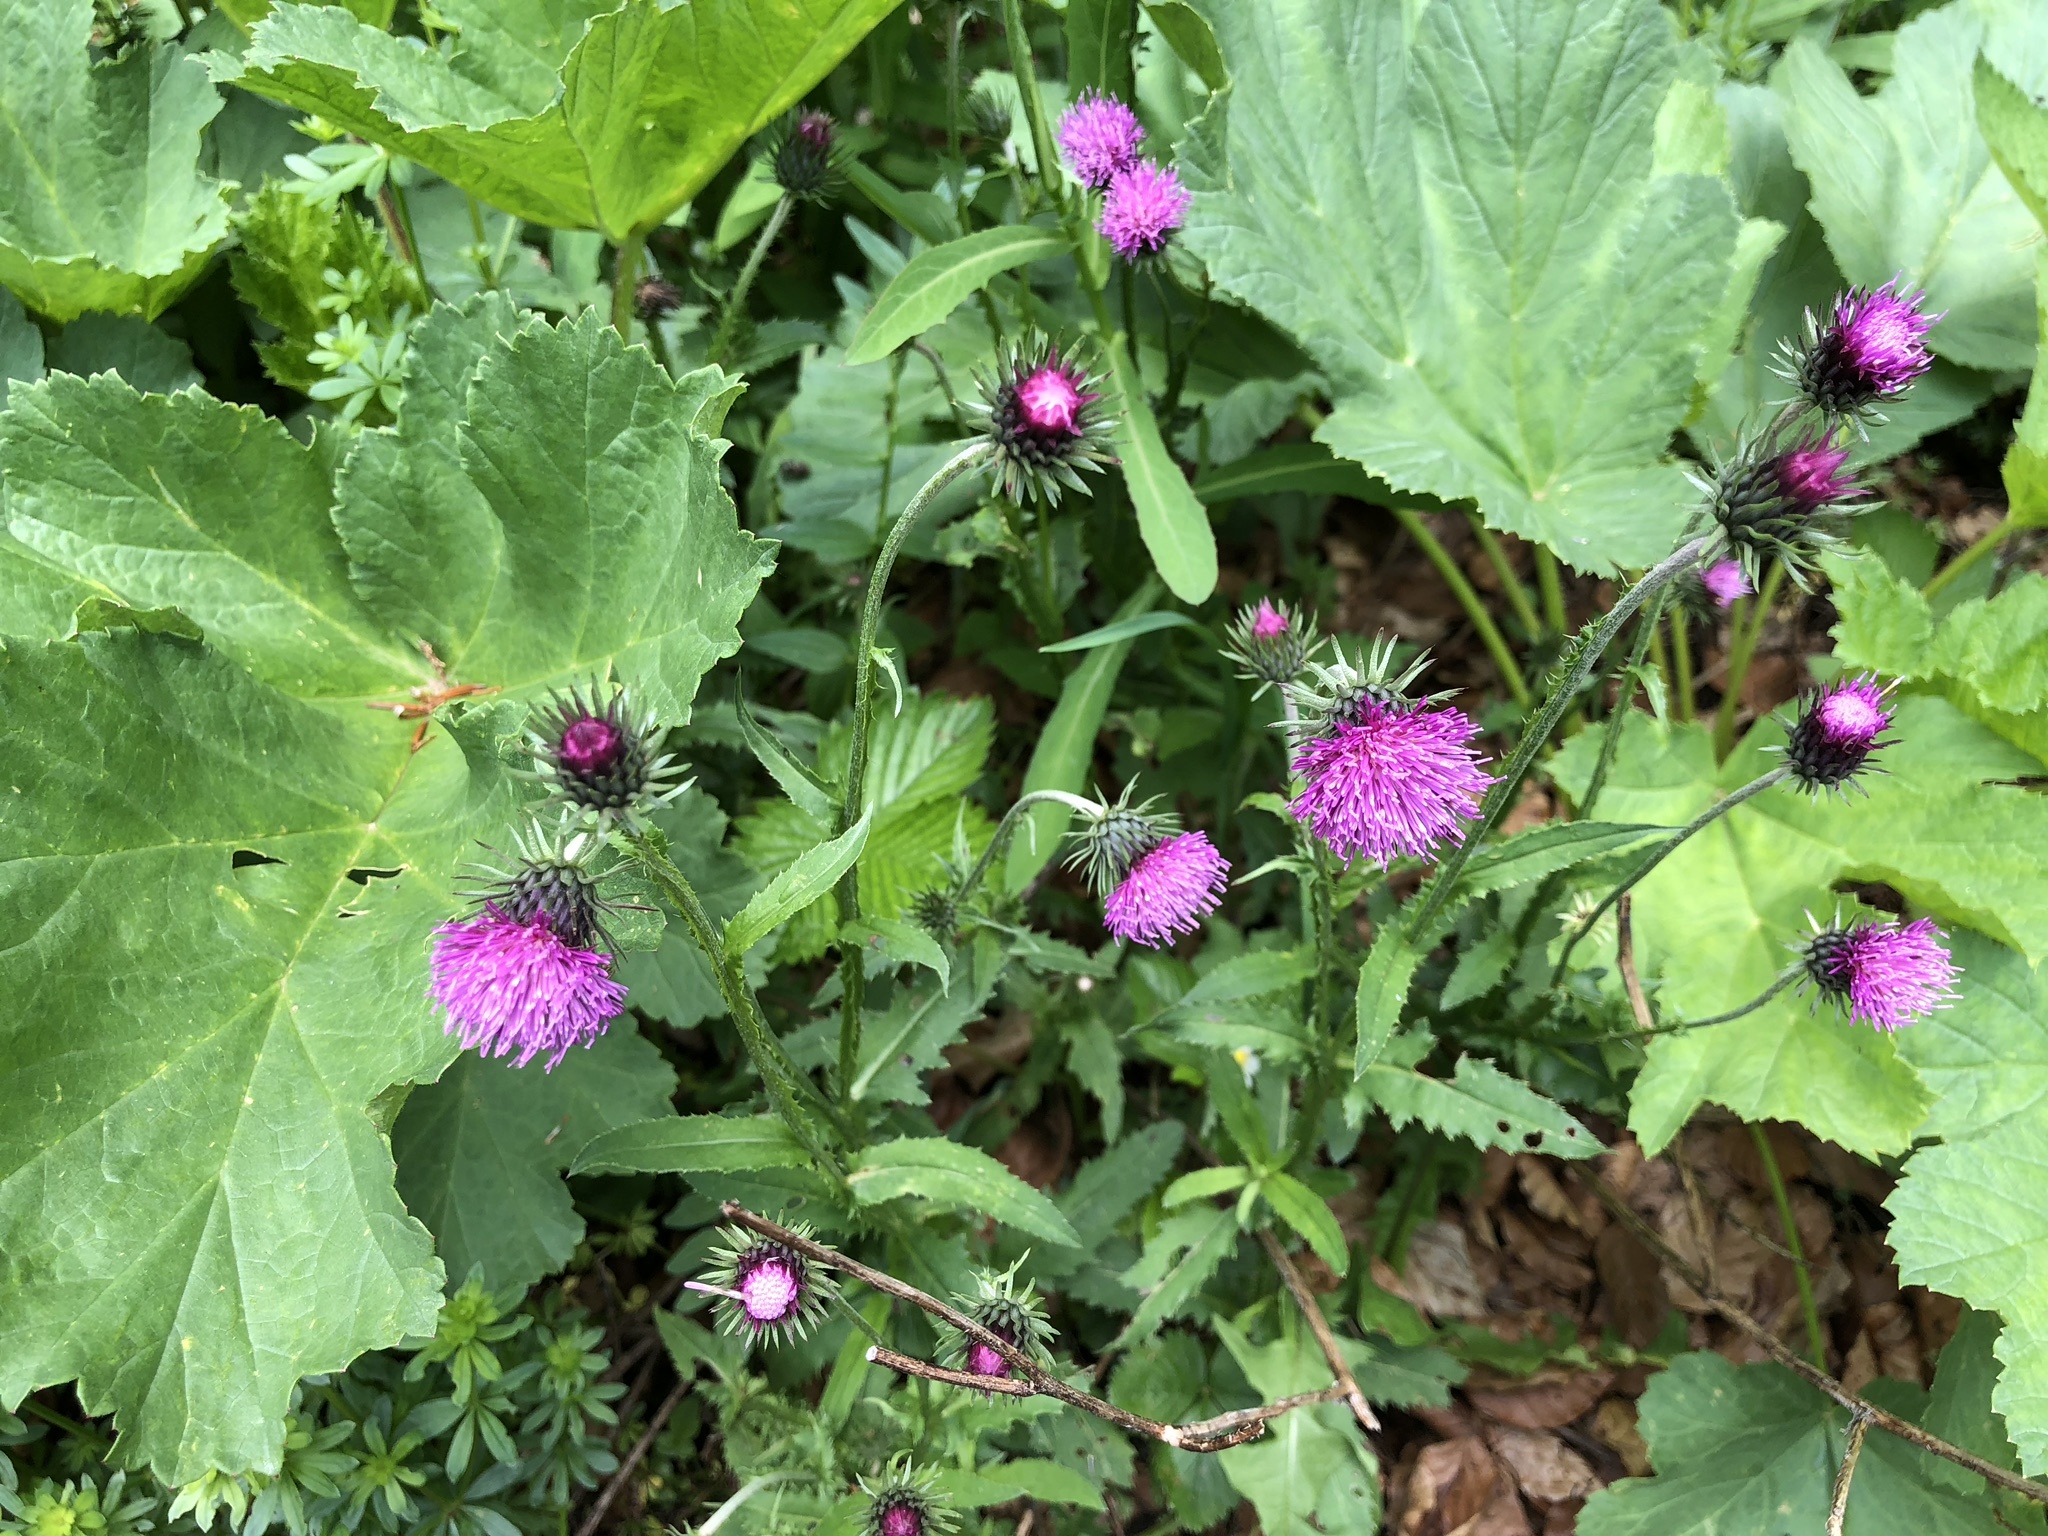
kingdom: Plantae
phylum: Tracheophyta
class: Magnoliopsida
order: Asterales
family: Asteraceae
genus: Carduus
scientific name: Carduus defloratus
